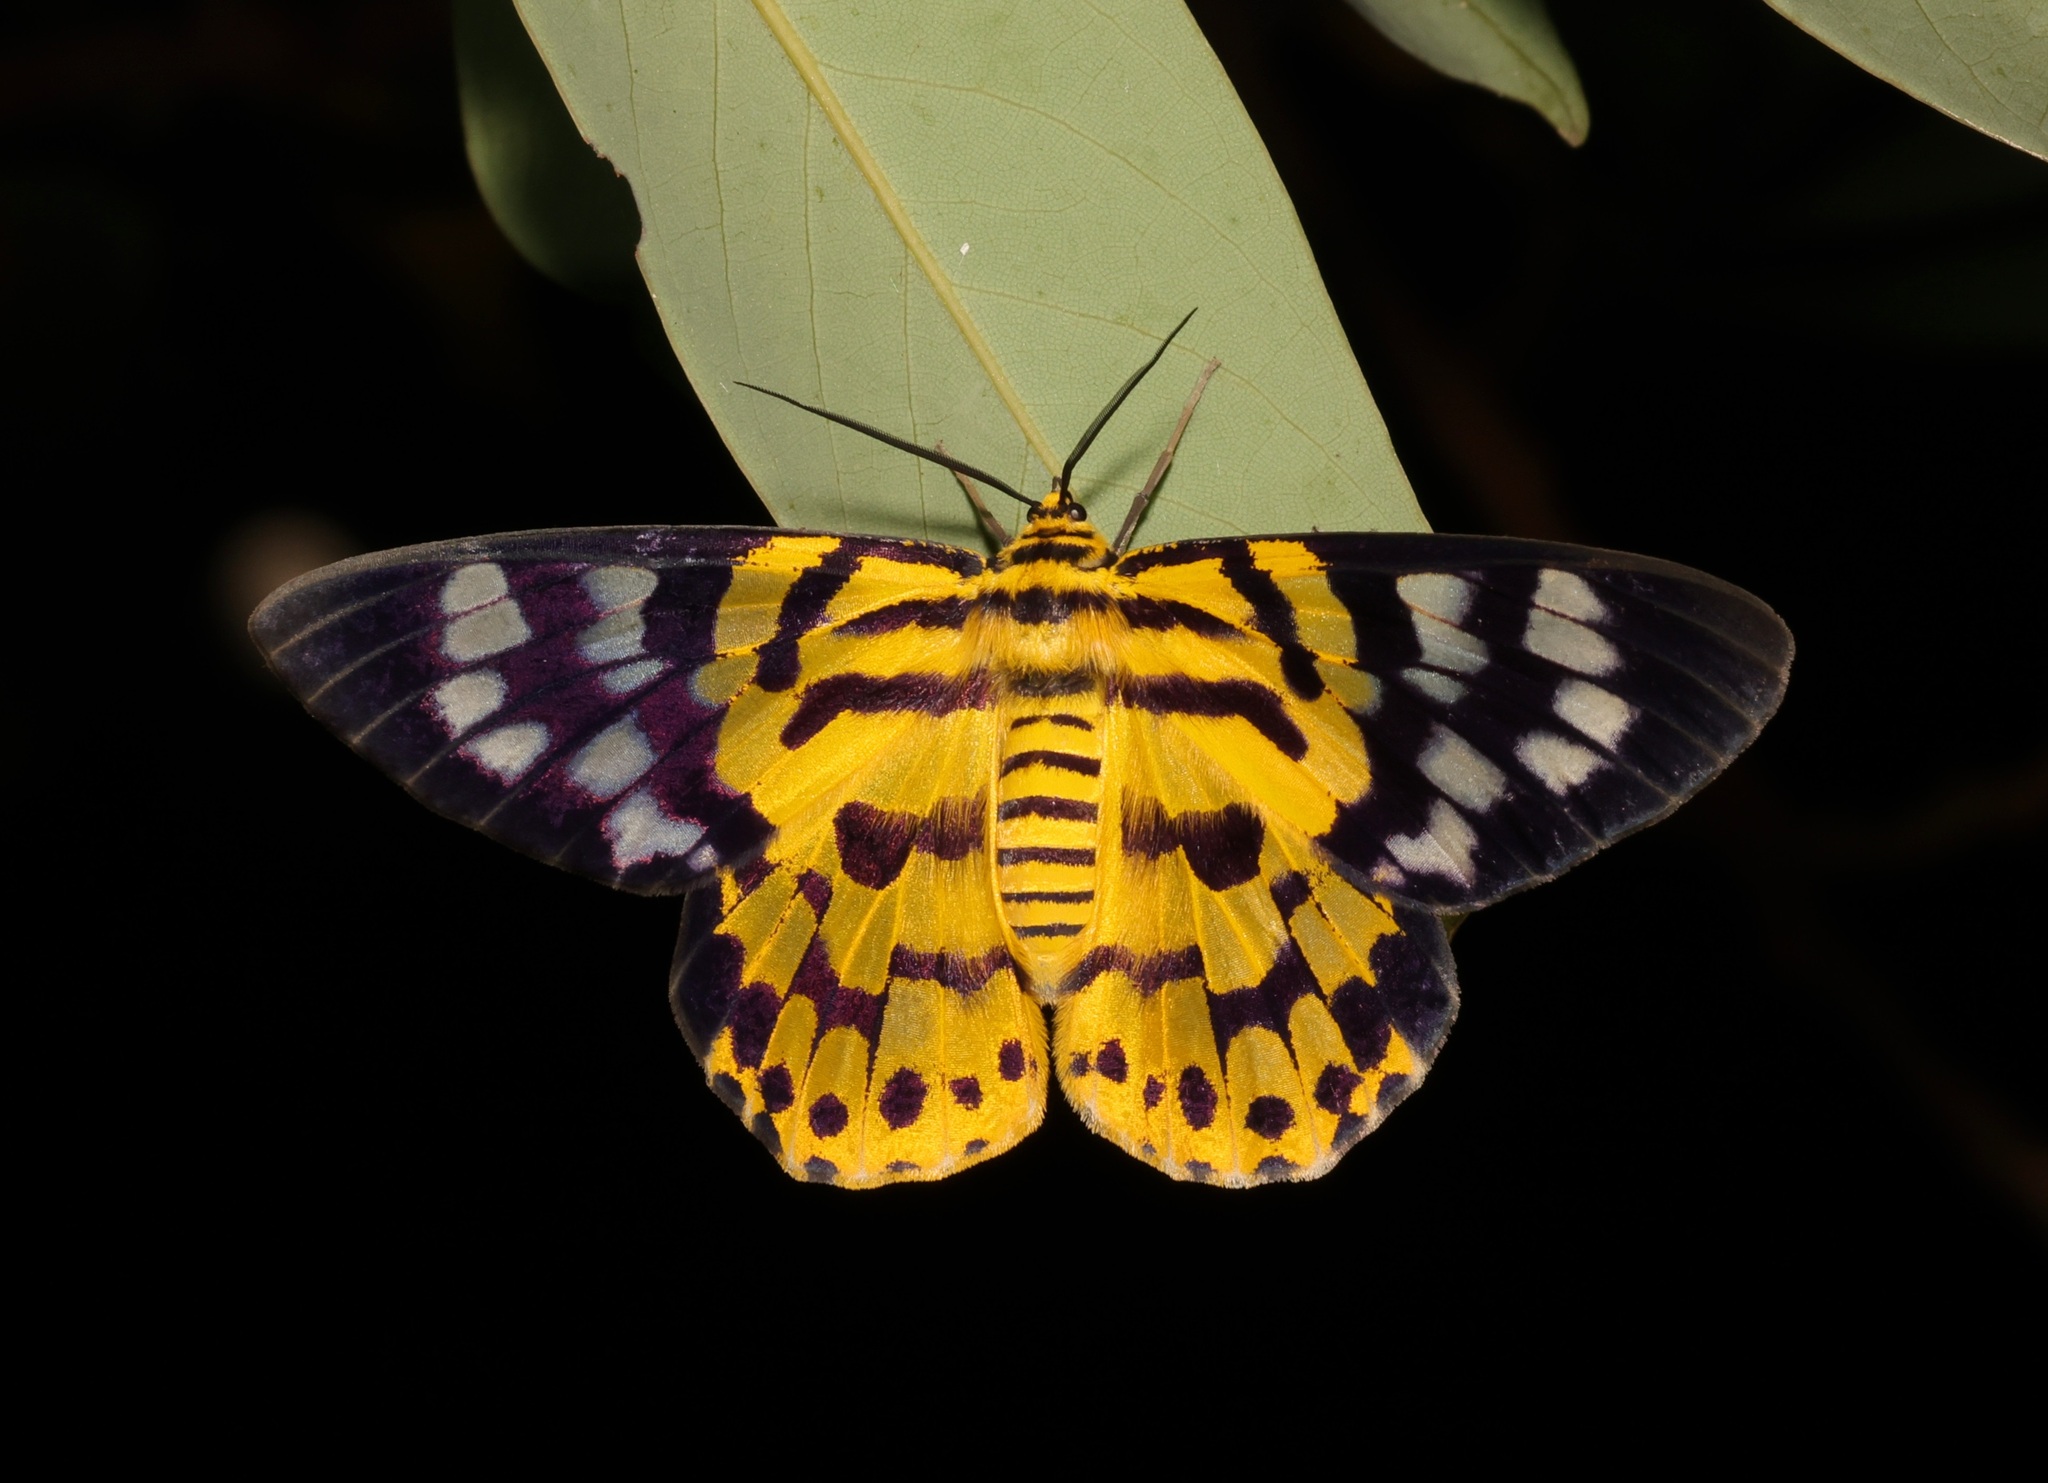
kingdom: Animalia
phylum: Arthropoda
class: Insecta
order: Lepidoptera
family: Geometridae
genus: Dysphania
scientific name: Dysphania militaris
